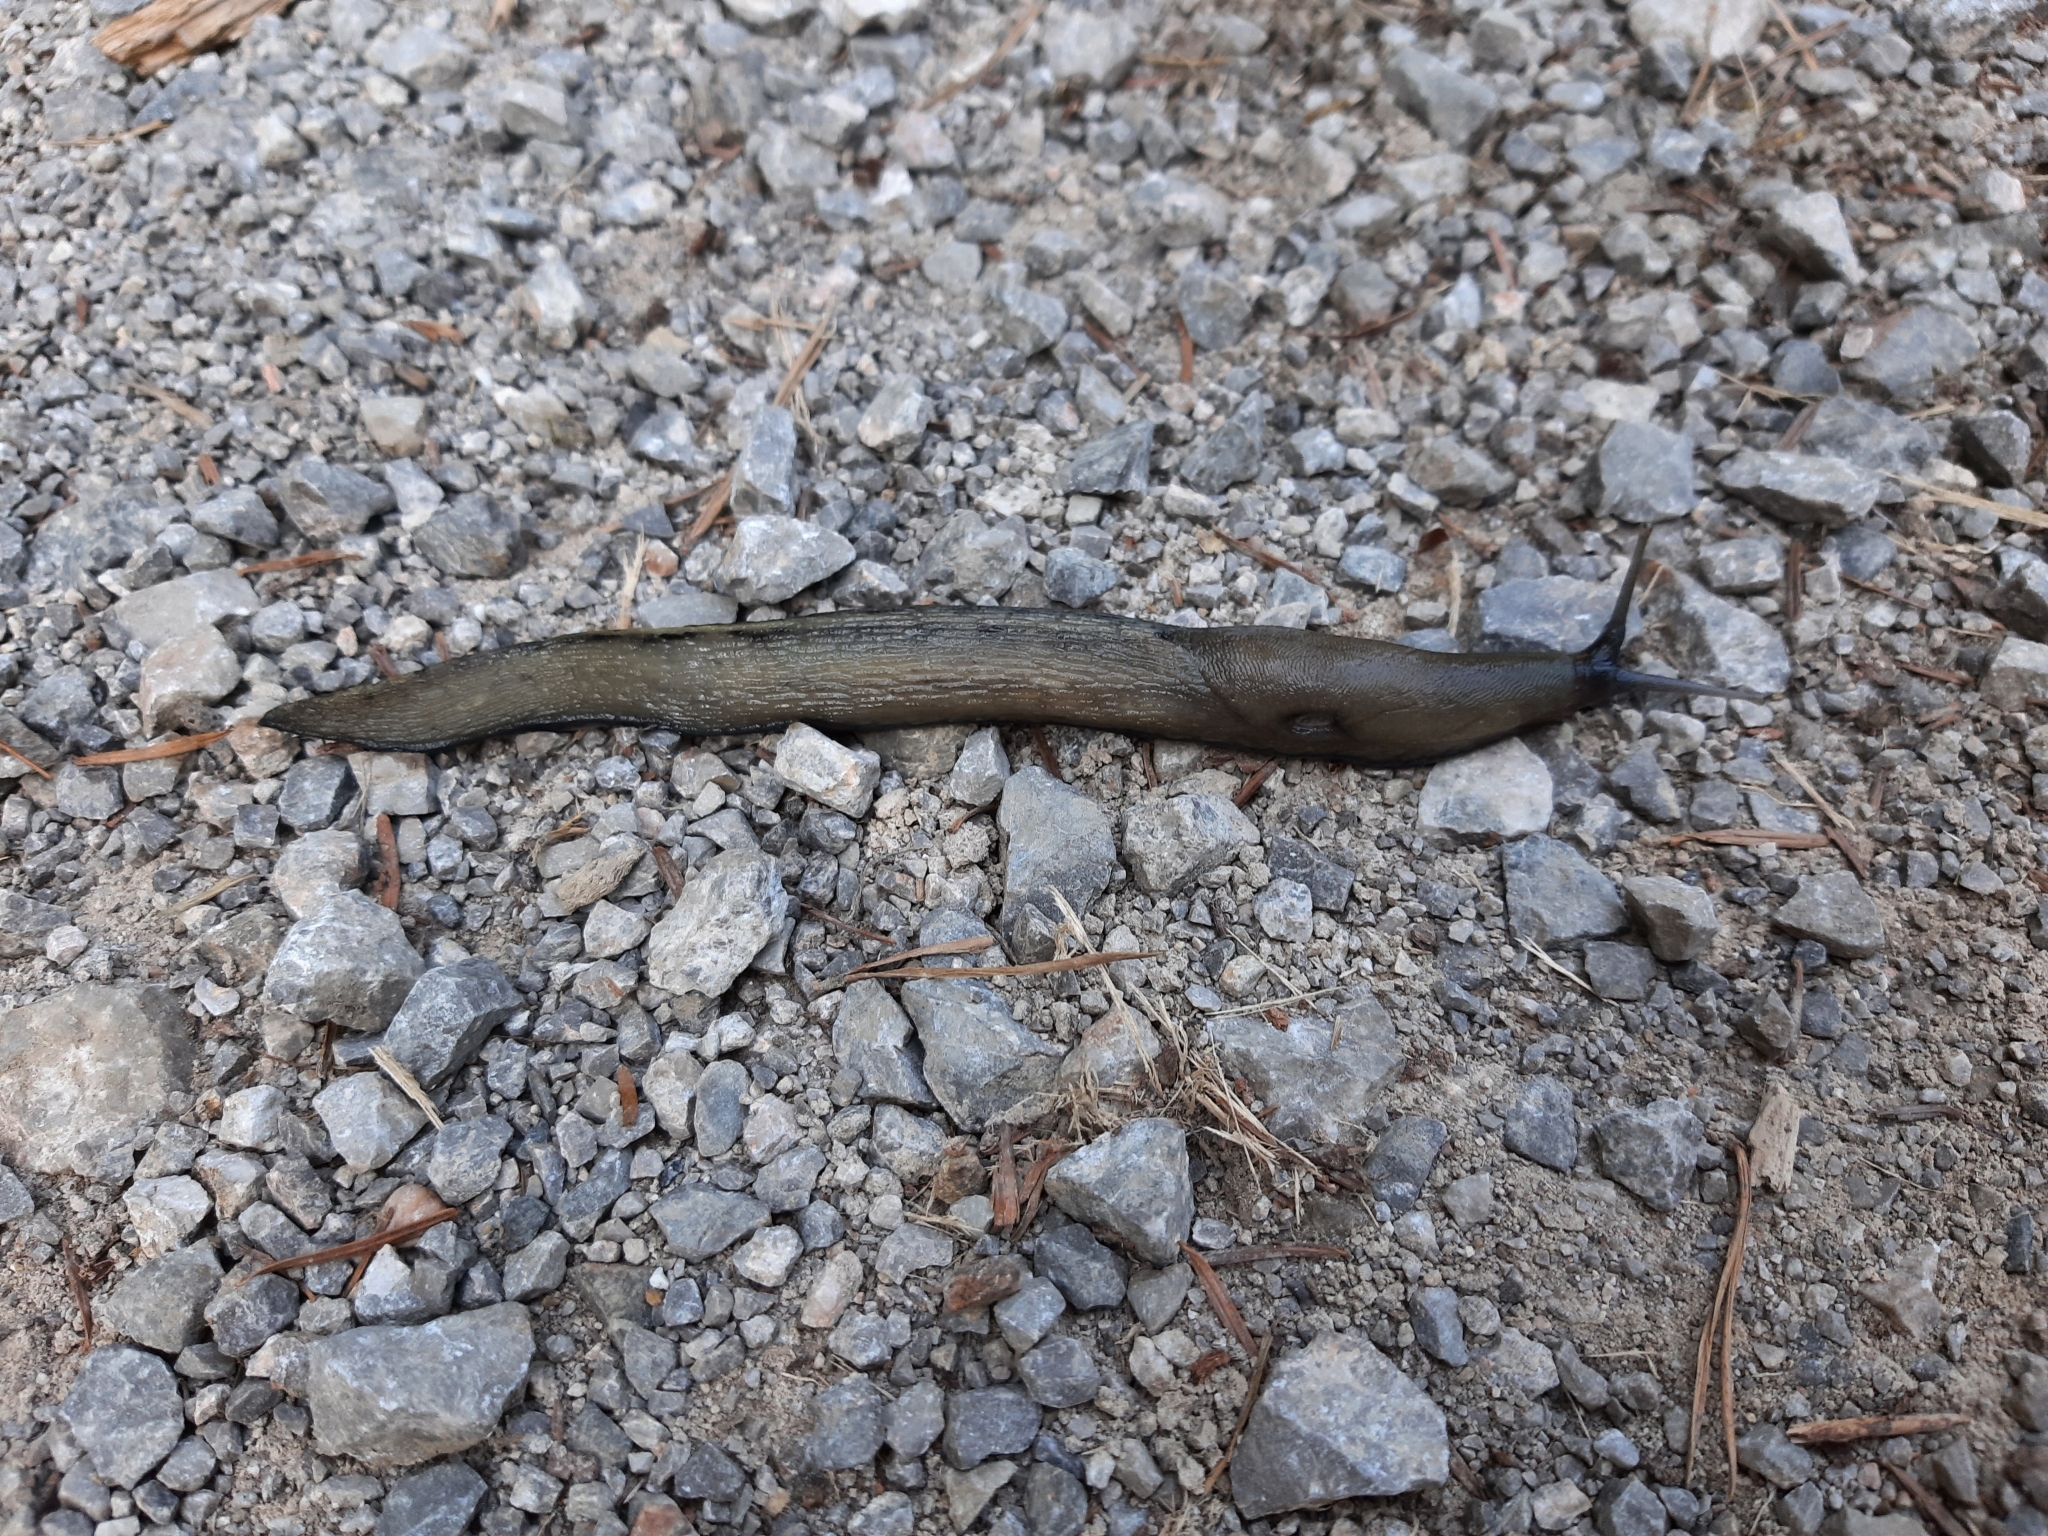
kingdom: Animalia
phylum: Mollusca
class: Gastropoda
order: Stylommatophora
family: Limacidae
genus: Limax
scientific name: Limax cinereoniger
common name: Ash-black slug
